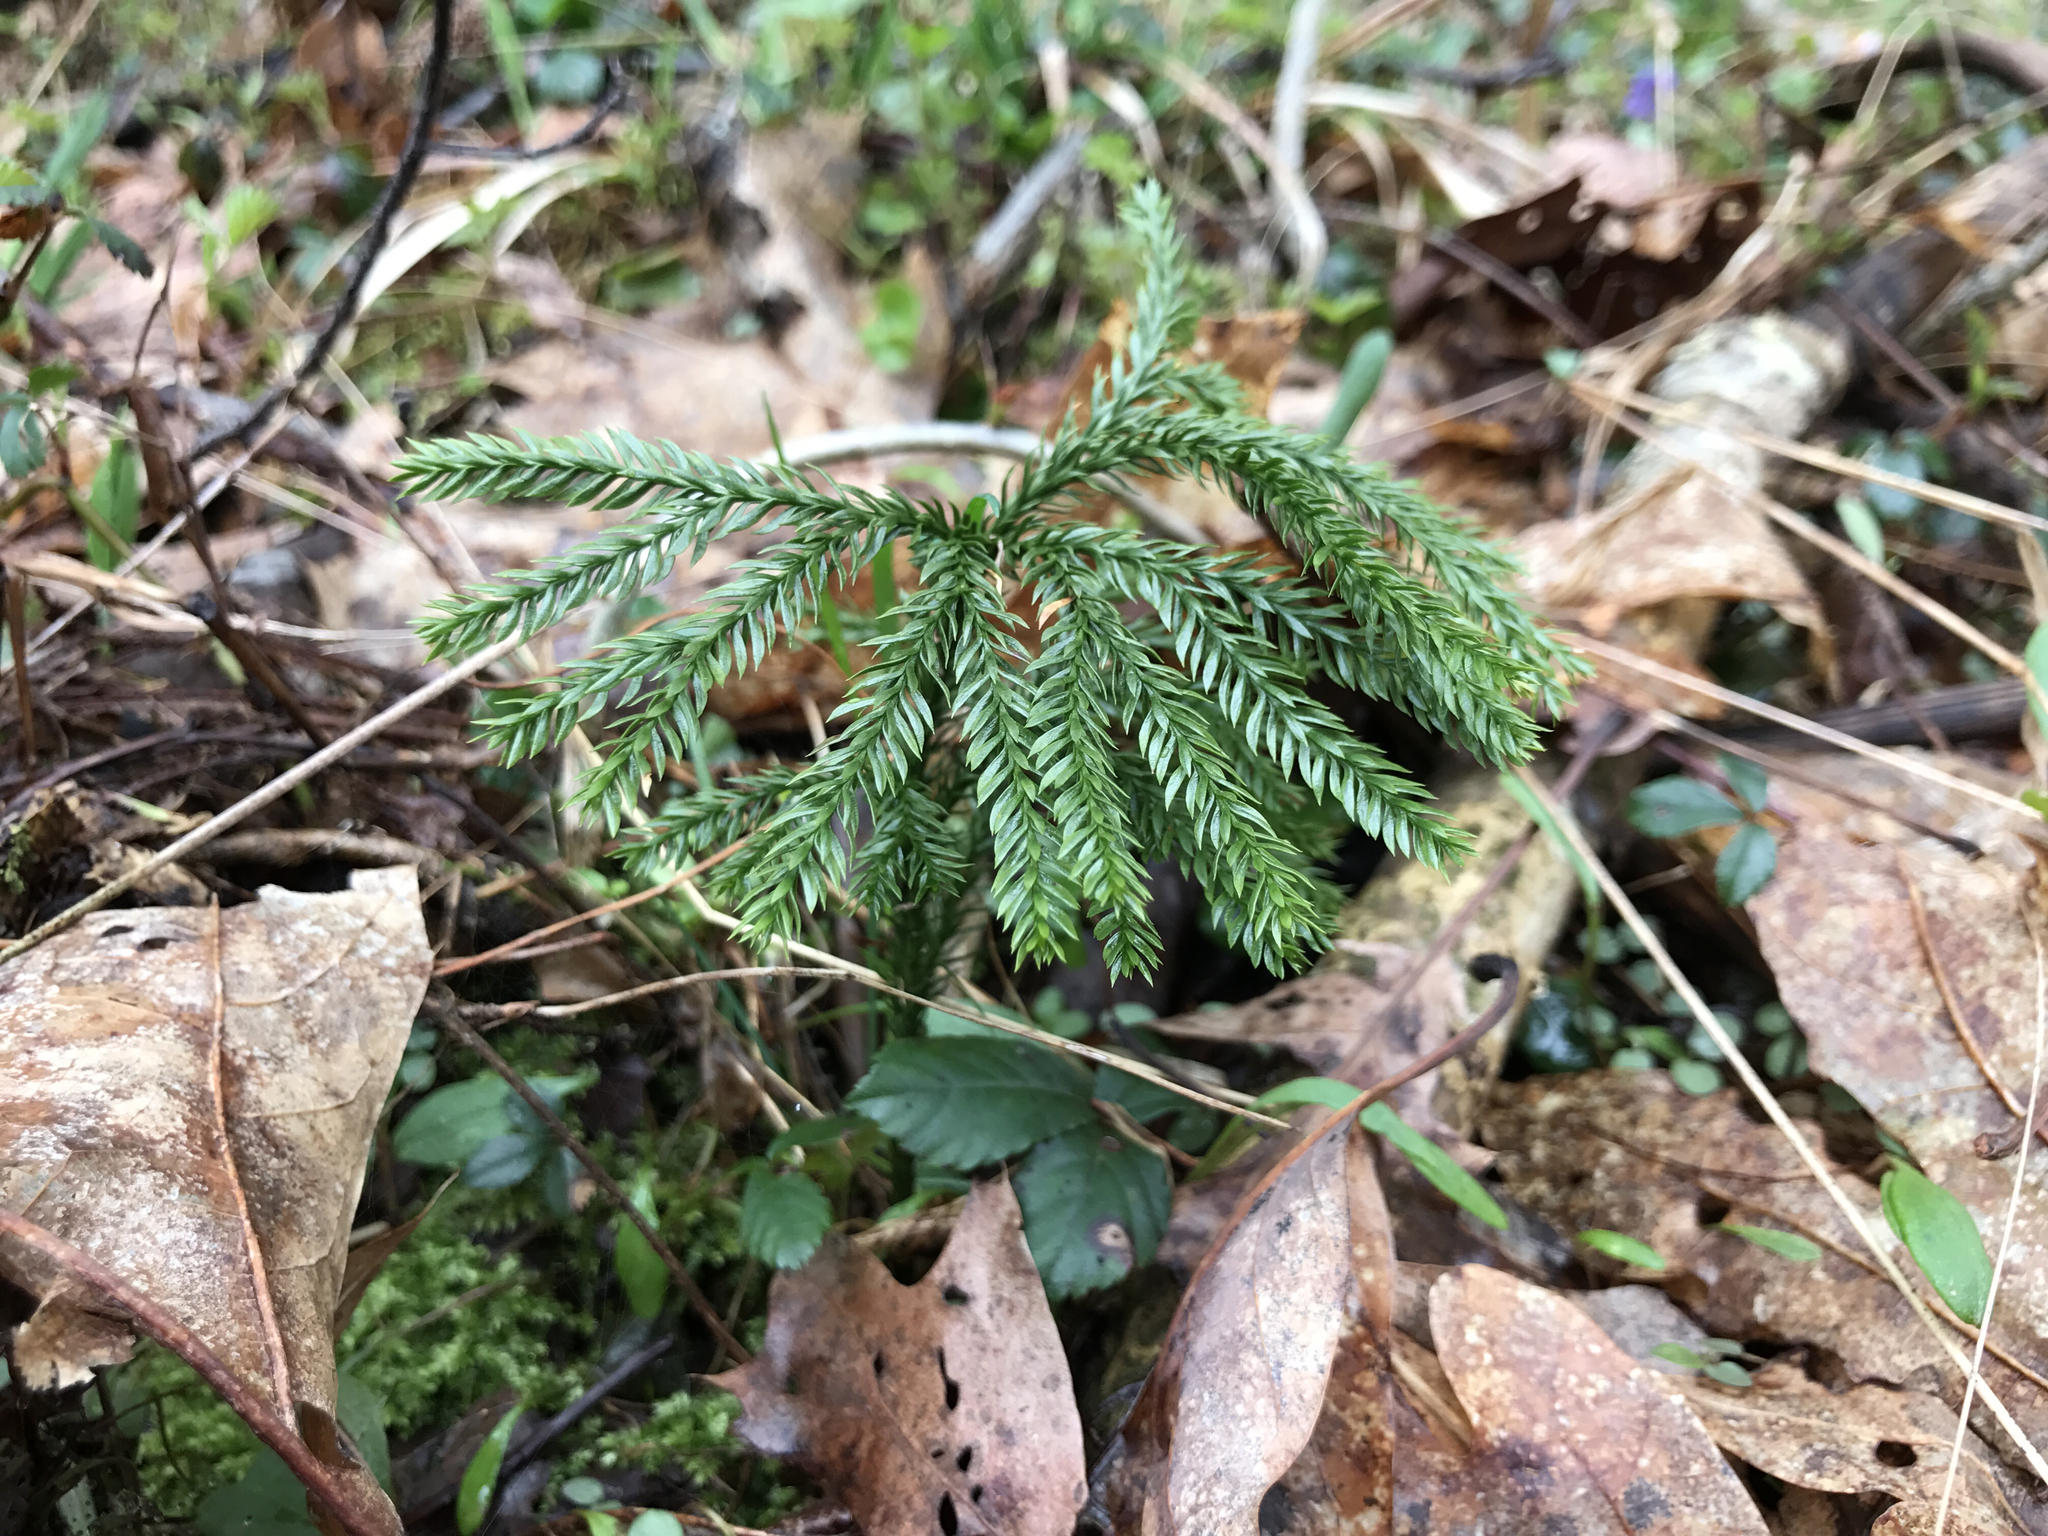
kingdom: Plantae
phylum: Tracheophyta
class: Lycopodiopsida
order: Lycopodiales
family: Lycopodiaceae
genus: Dendrolycopodium
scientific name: Dendrolycopodium obscurum
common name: Common ground-pine
